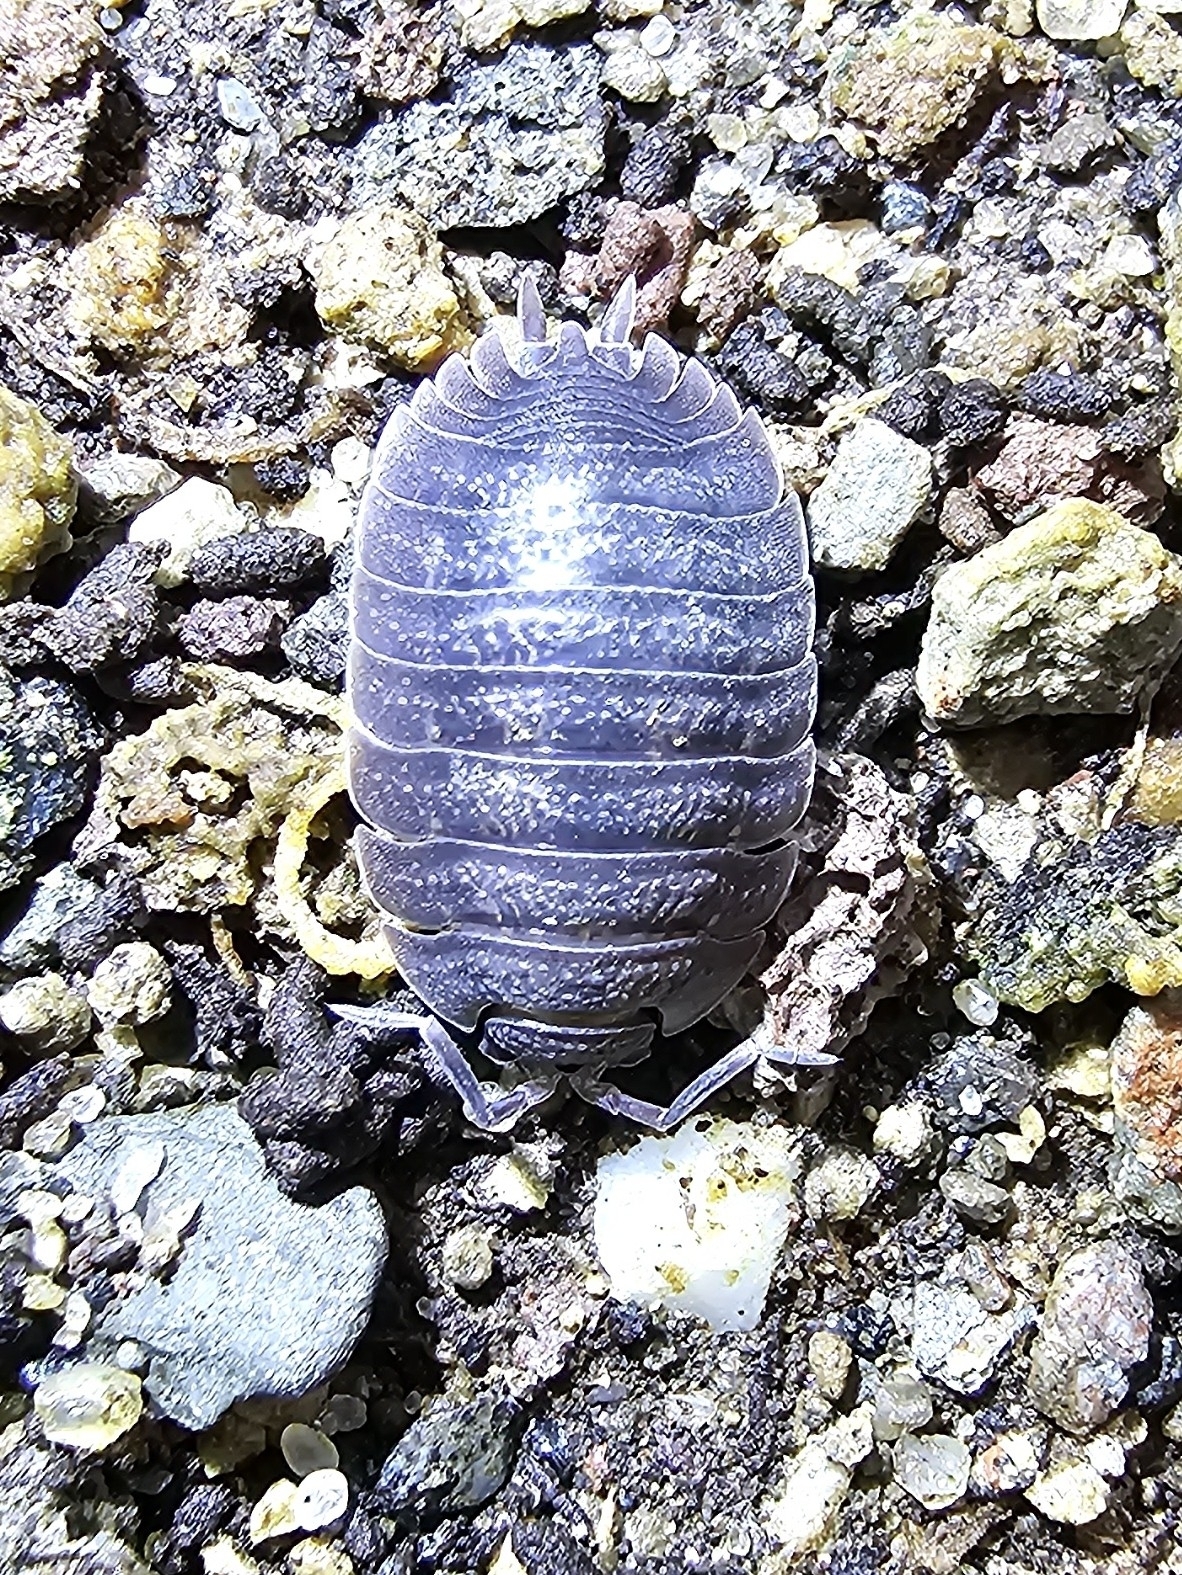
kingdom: Animalia
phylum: Arthropoda
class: Malacostraca
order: Isopoda
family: Porcellionidae
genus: Porcellio
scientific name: Porcellio dilatatus
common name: Isopod
